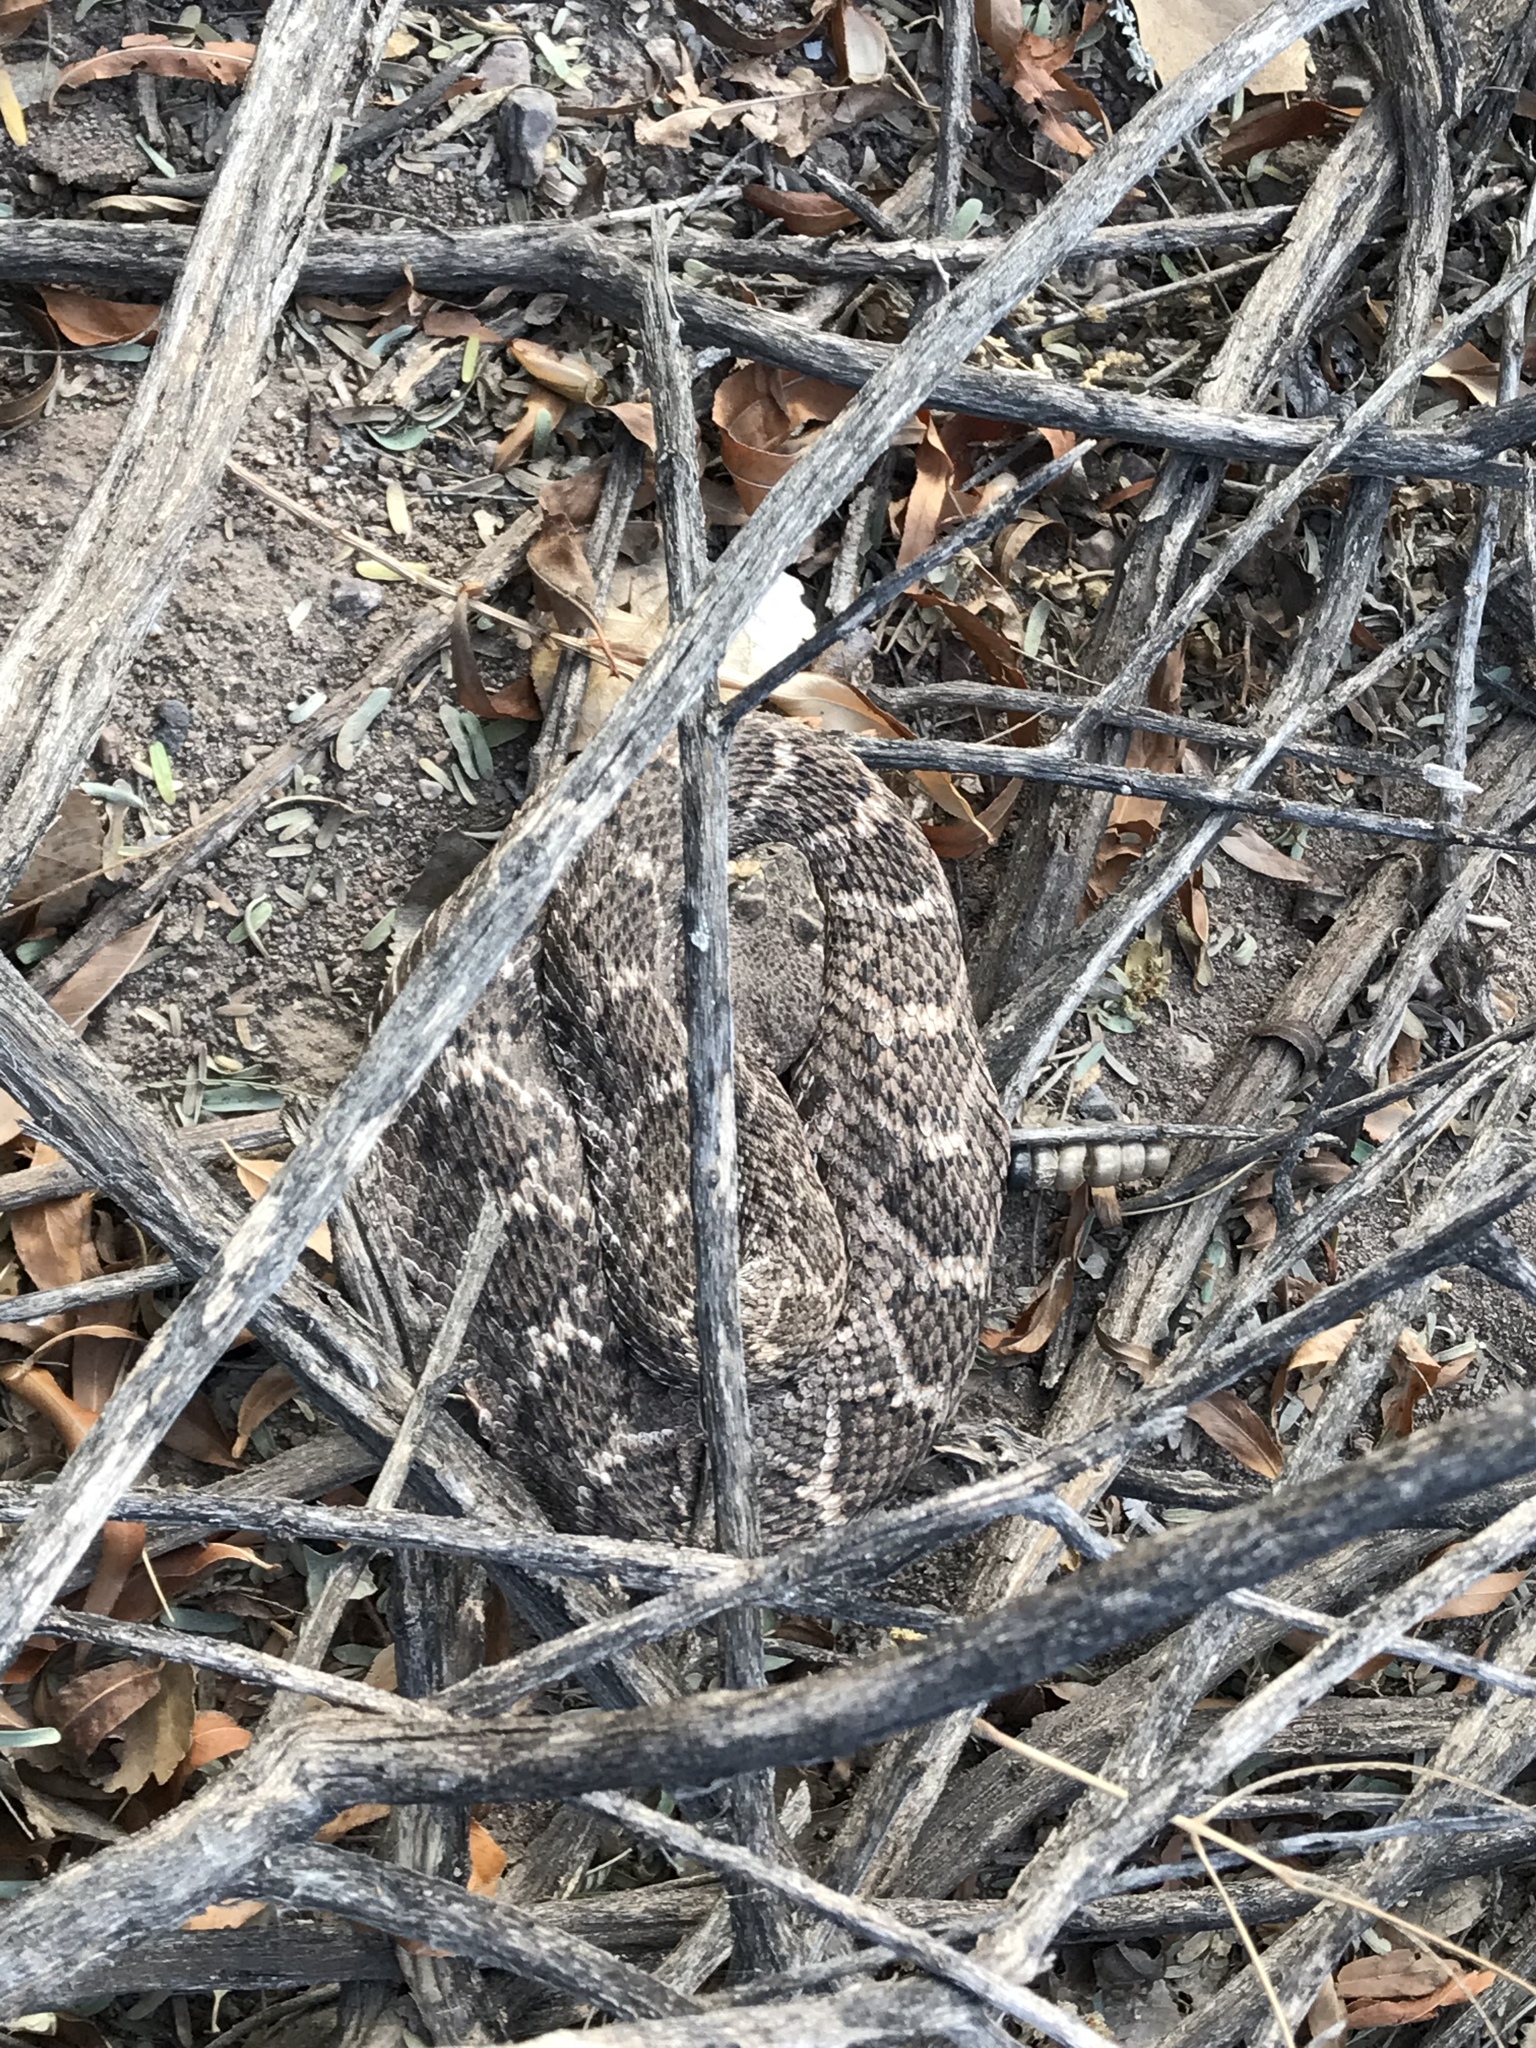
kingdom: Animalia
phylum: Chordata
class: Squamata
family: Viperidae
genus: Crotalus
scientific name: Crotalus atrox
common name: Western diamond-backed rattlesnake
